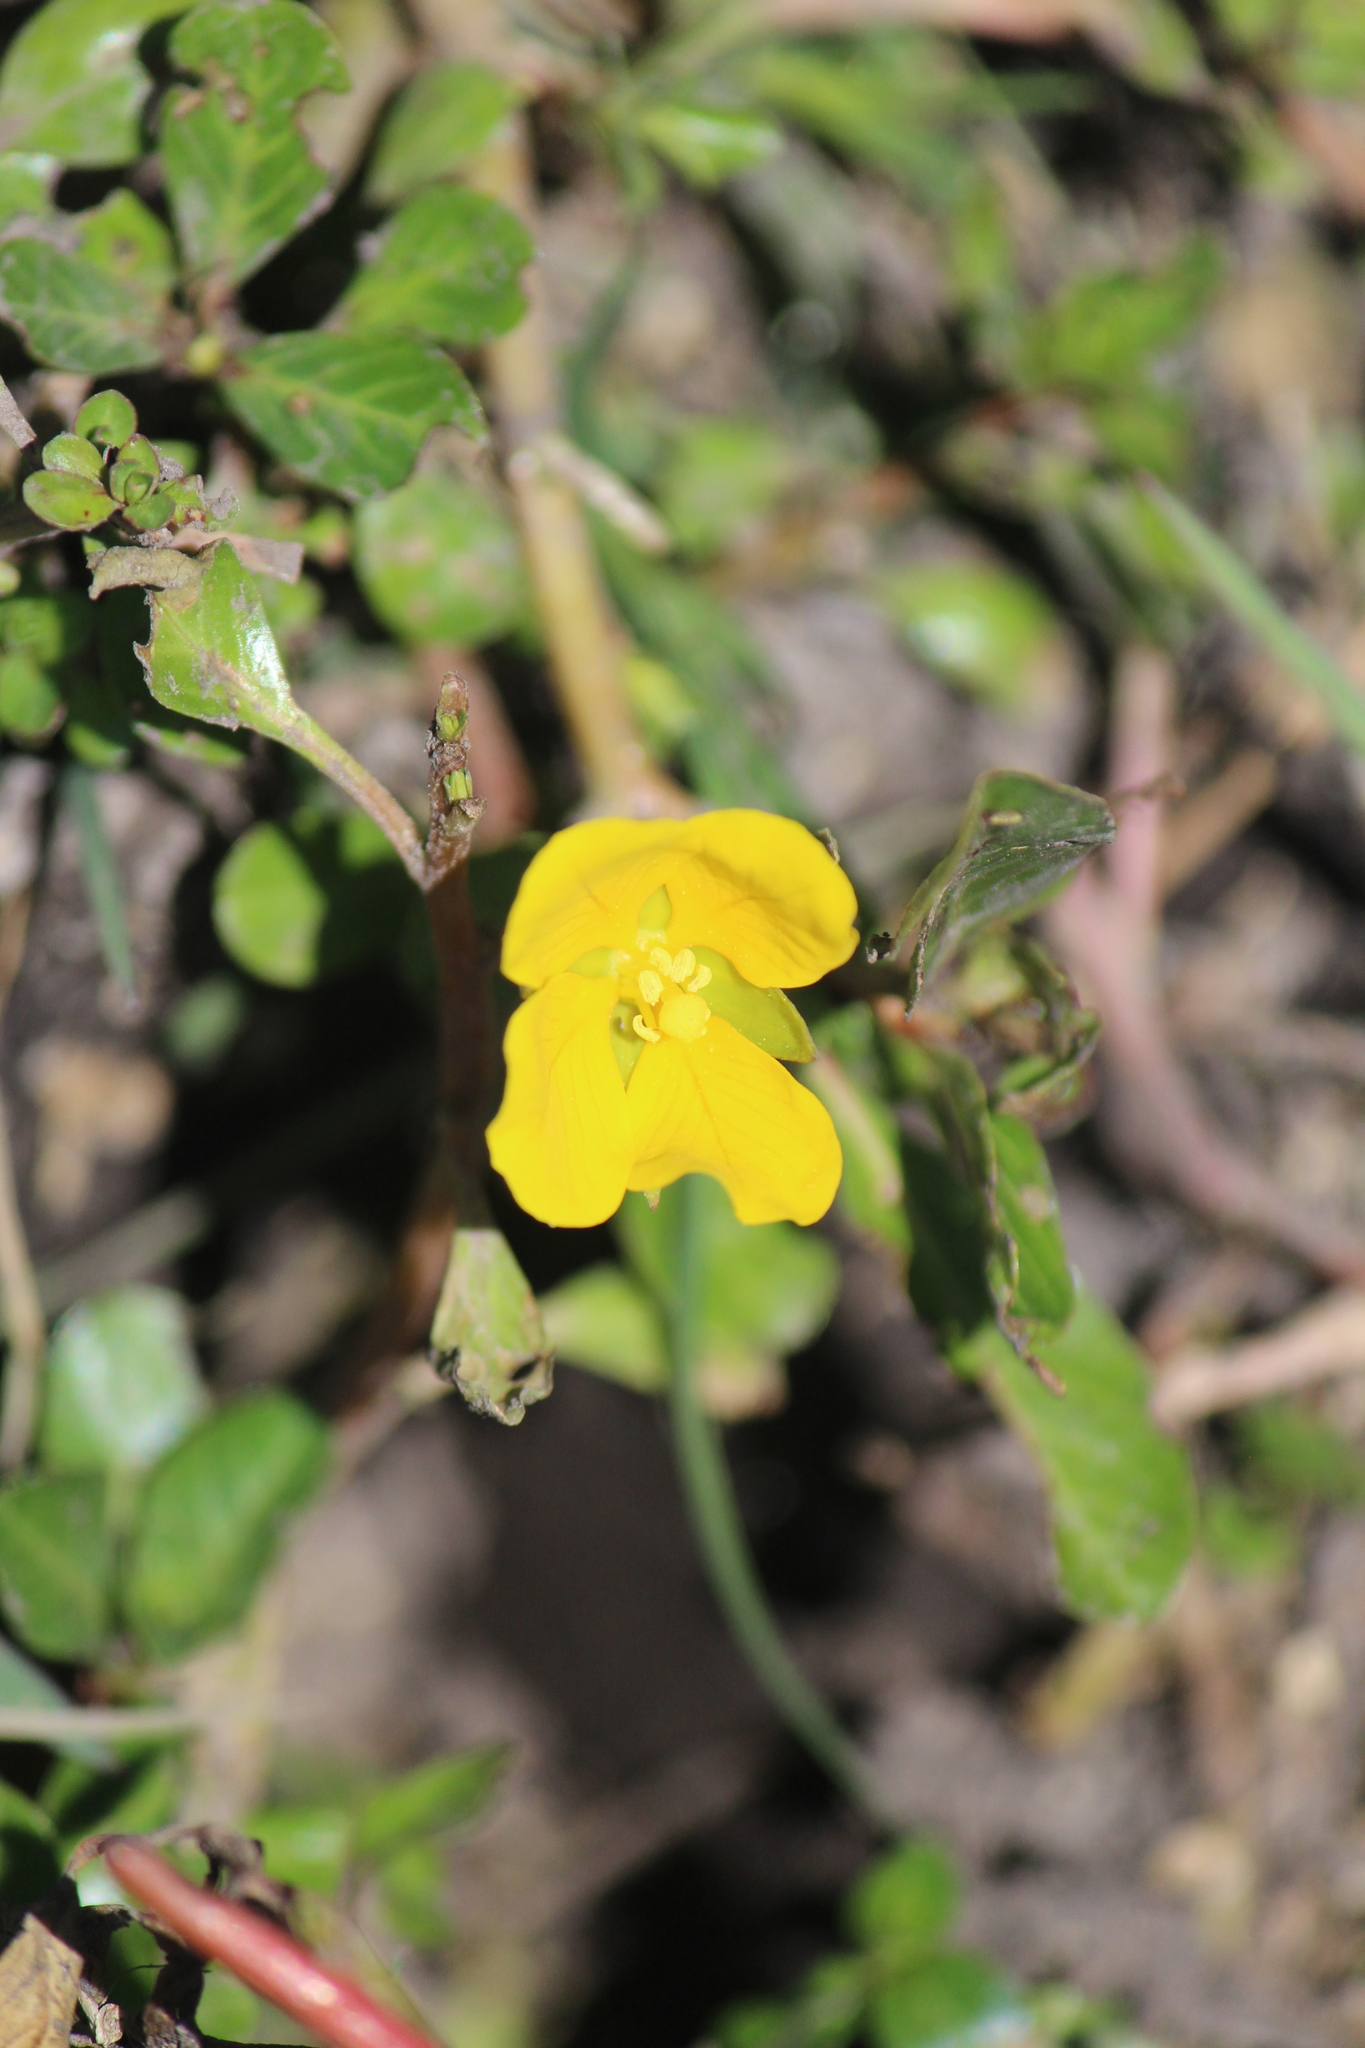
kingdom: Plantae
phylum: Tracheophyta
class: Magnoliopsida
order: Myrtales
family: Onagraceae
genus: Ludwigia
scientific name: Ludwigia peploides
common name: Floating primrose-willow
